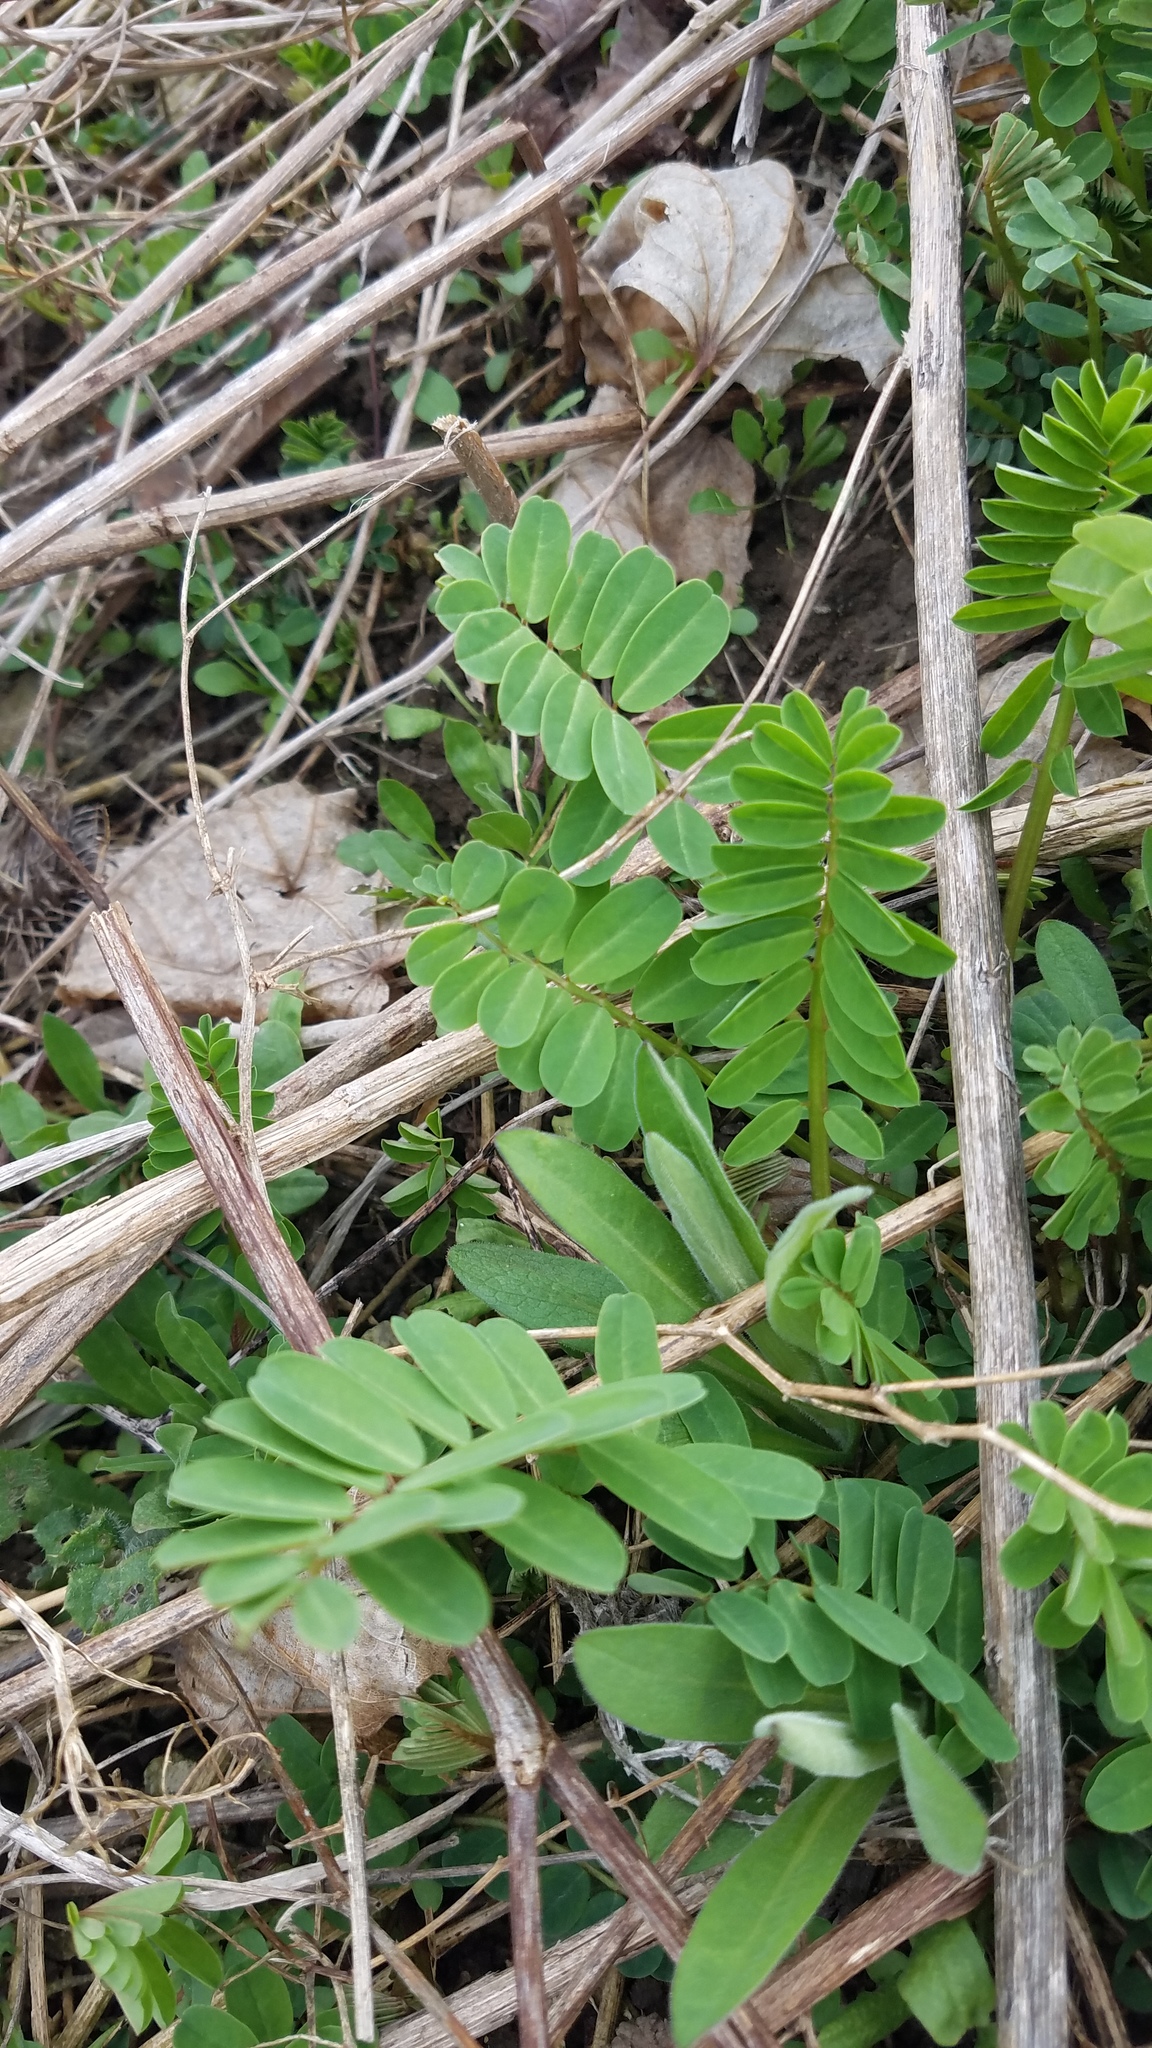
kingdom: Plantae
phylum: Tracheophyta
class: Magnoliopsida
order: Fabales
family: Fabaceae
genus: Coronilla
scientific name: Coronilla varia
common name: Crownvetch
